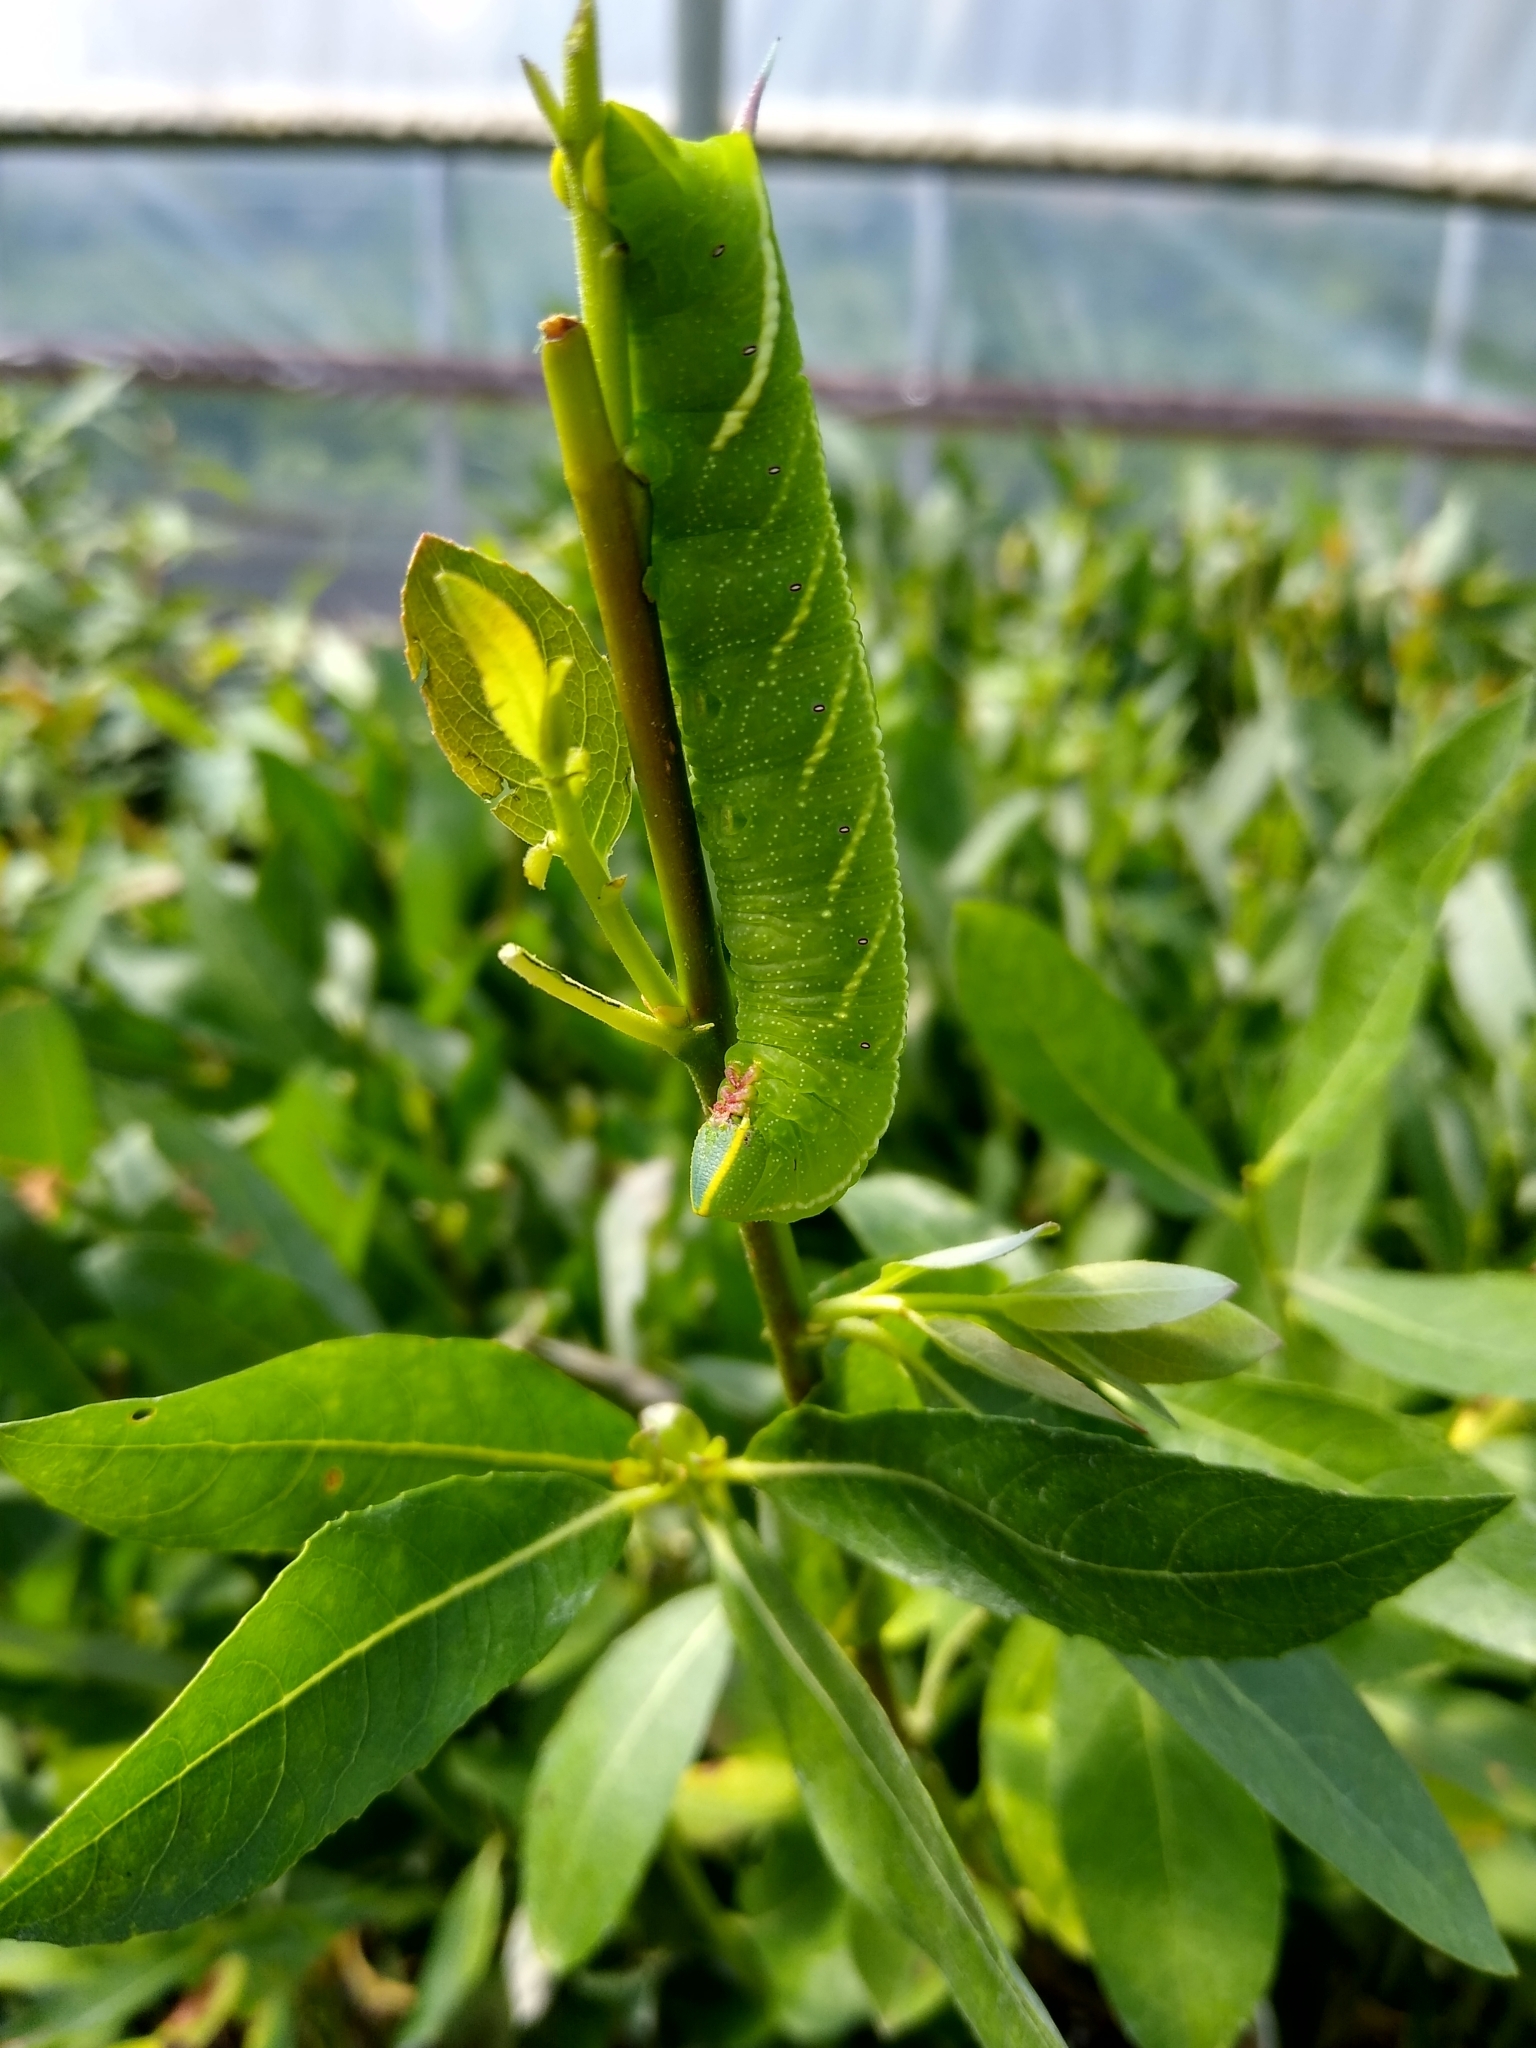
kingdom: Animalia
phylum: Arthropoda
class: Insecta
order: Lepidoptera
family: Sphingidae
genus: Smerinthus
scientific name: Smerinthus cerisyi
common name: Cerisy's sphinx moth
